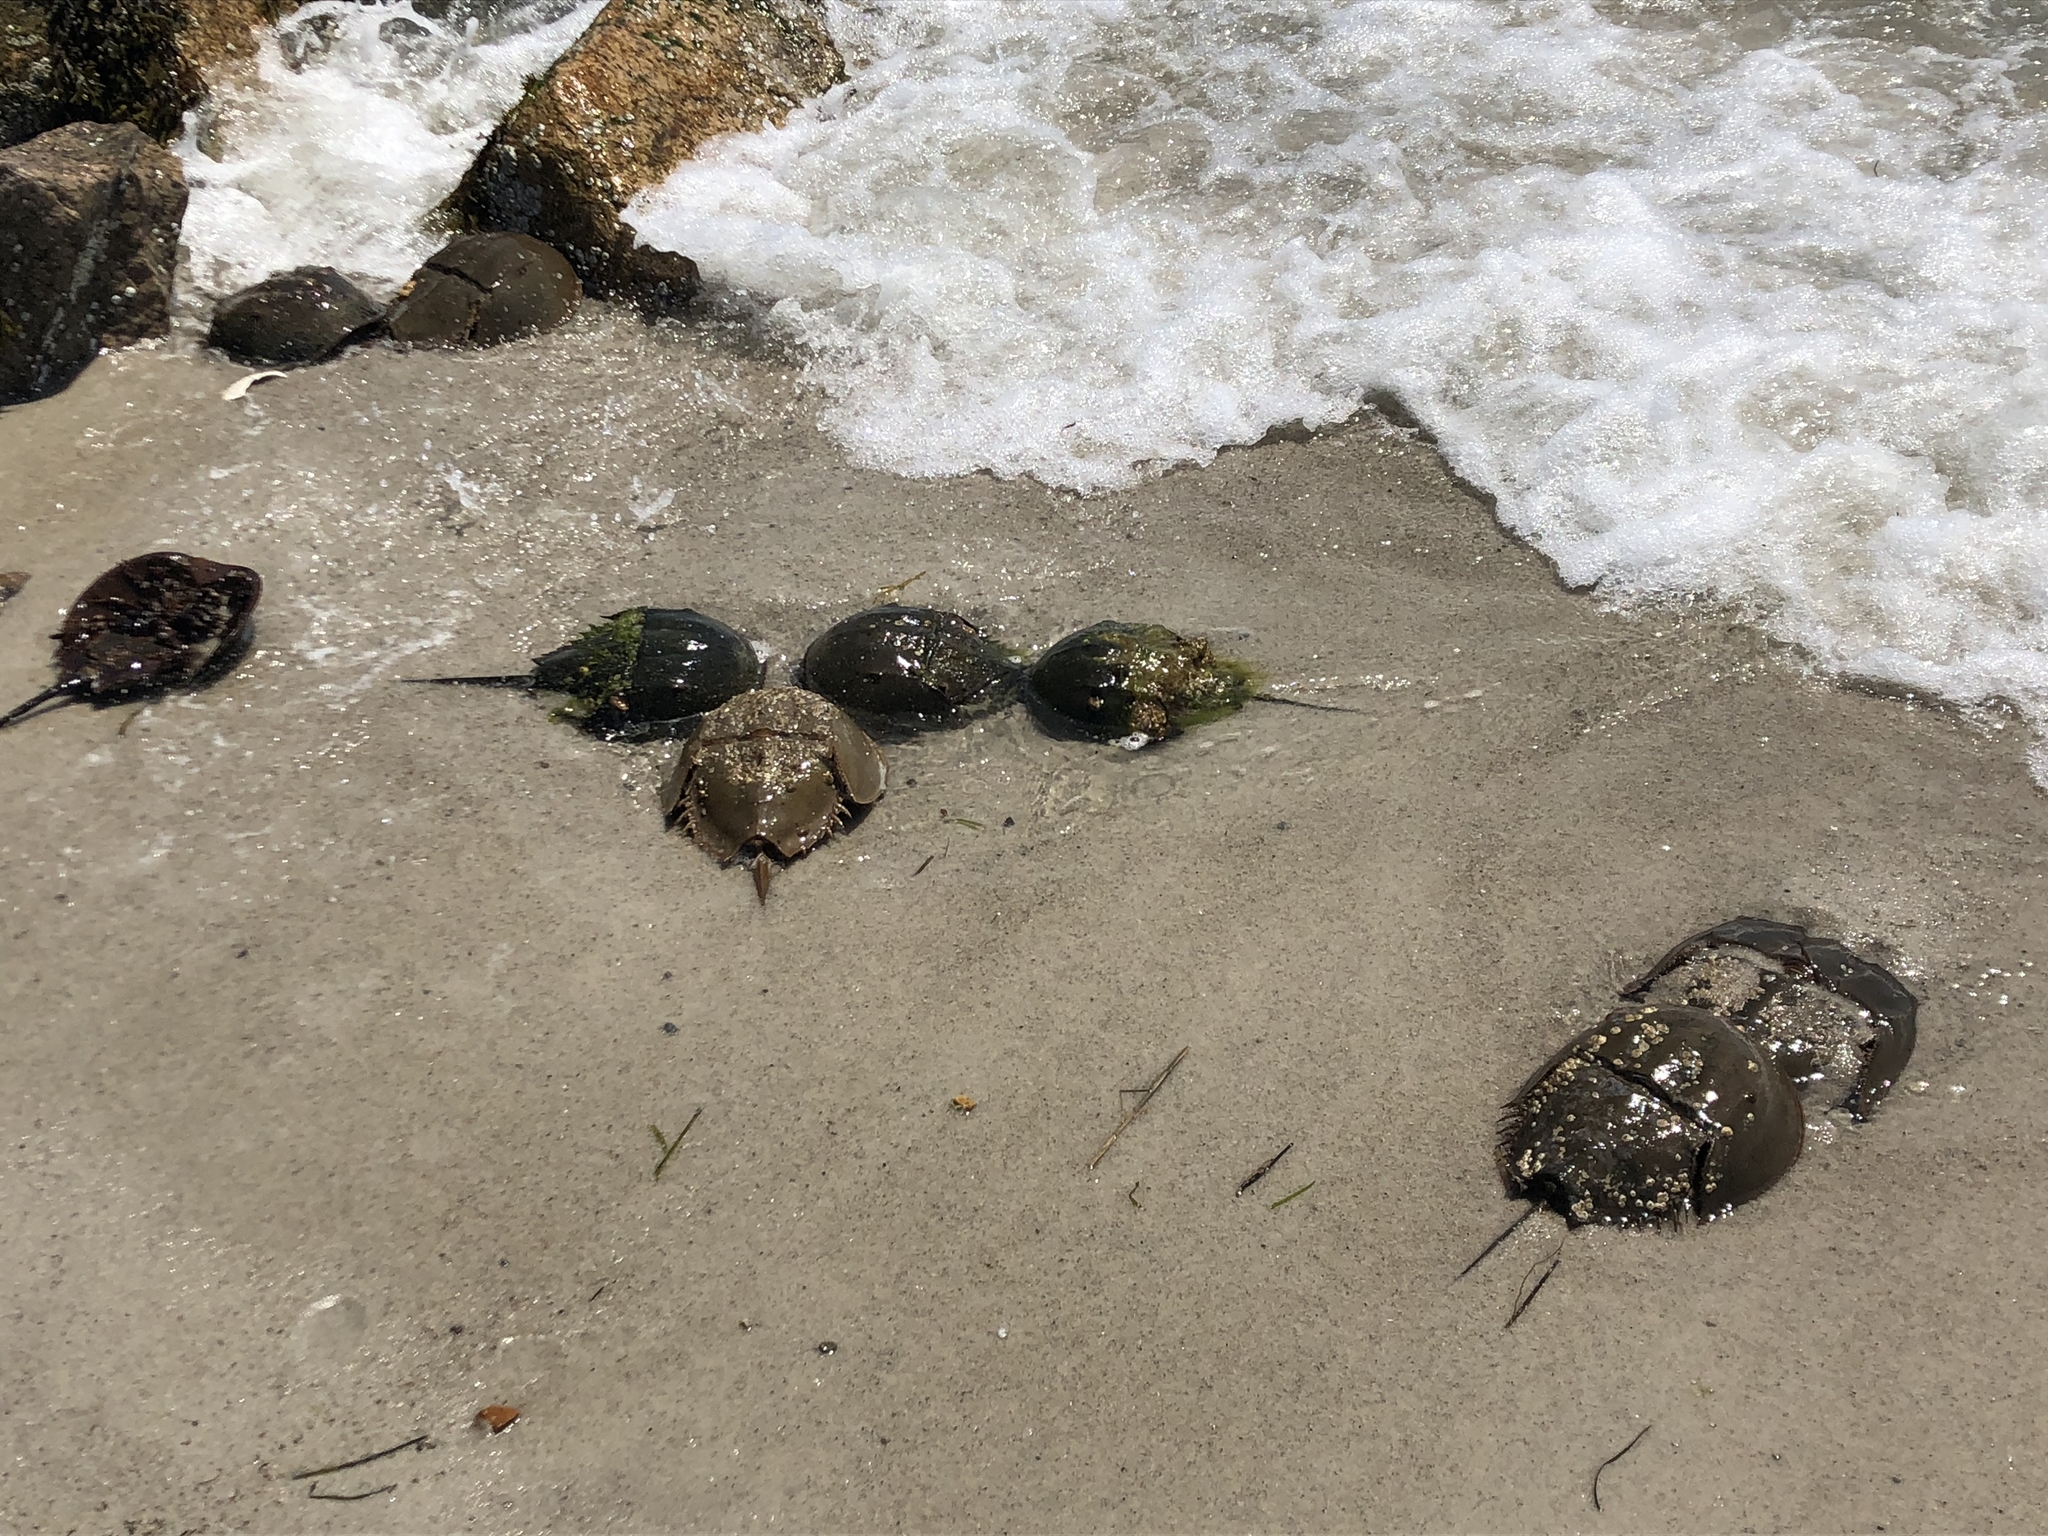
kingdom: Animalia
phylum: Arthropoda
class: Merostomata
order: Xiphosurida
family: Limulidae
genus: Limulus
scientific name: Limulus polyphemus
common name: Horseshoe crab
